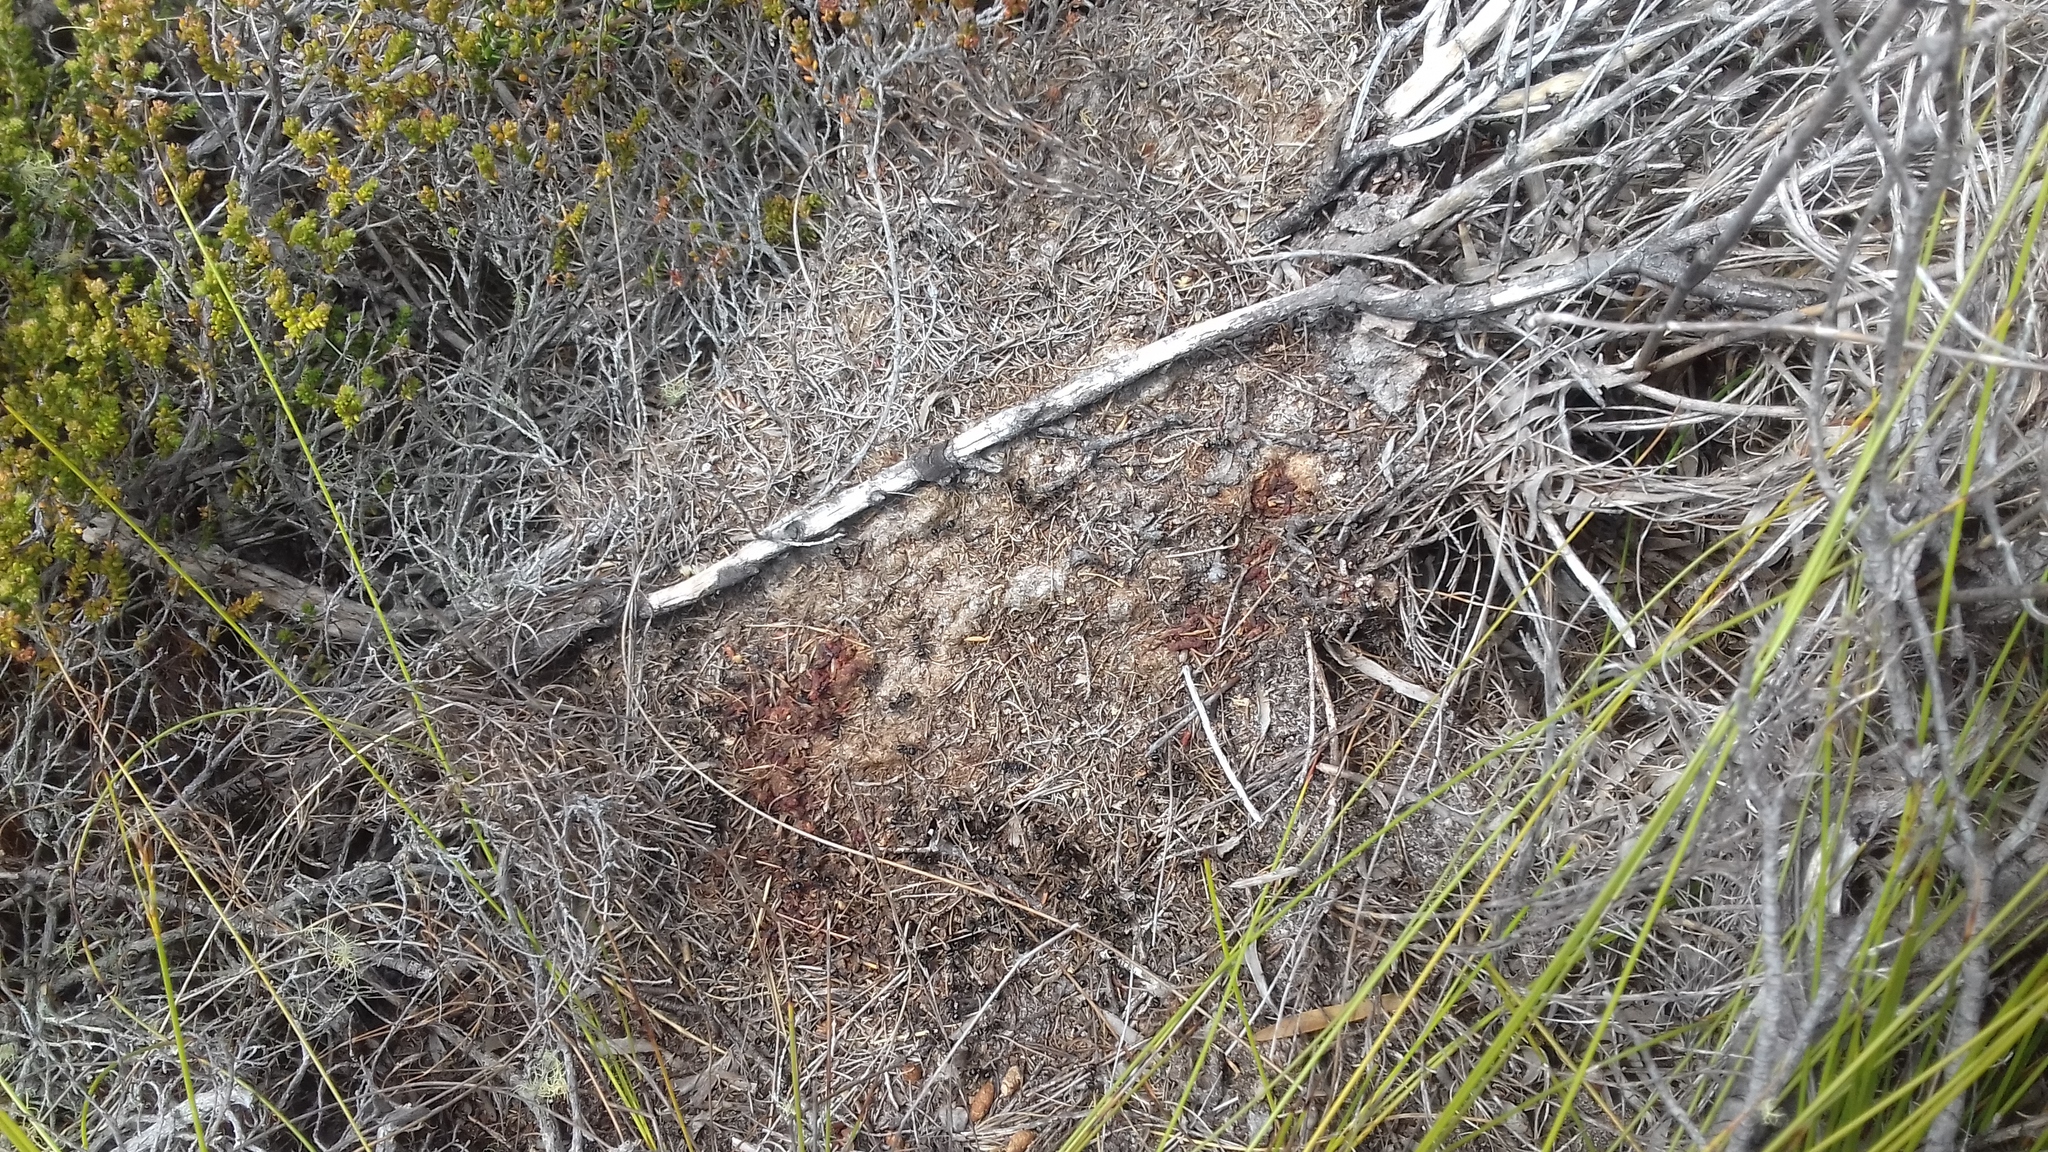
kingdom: Animalia
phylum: Arthropoda
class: Insecta
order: Hymenoptera
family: Formicidae
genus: Myrmicaria
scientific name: Myrmicaria nigra
